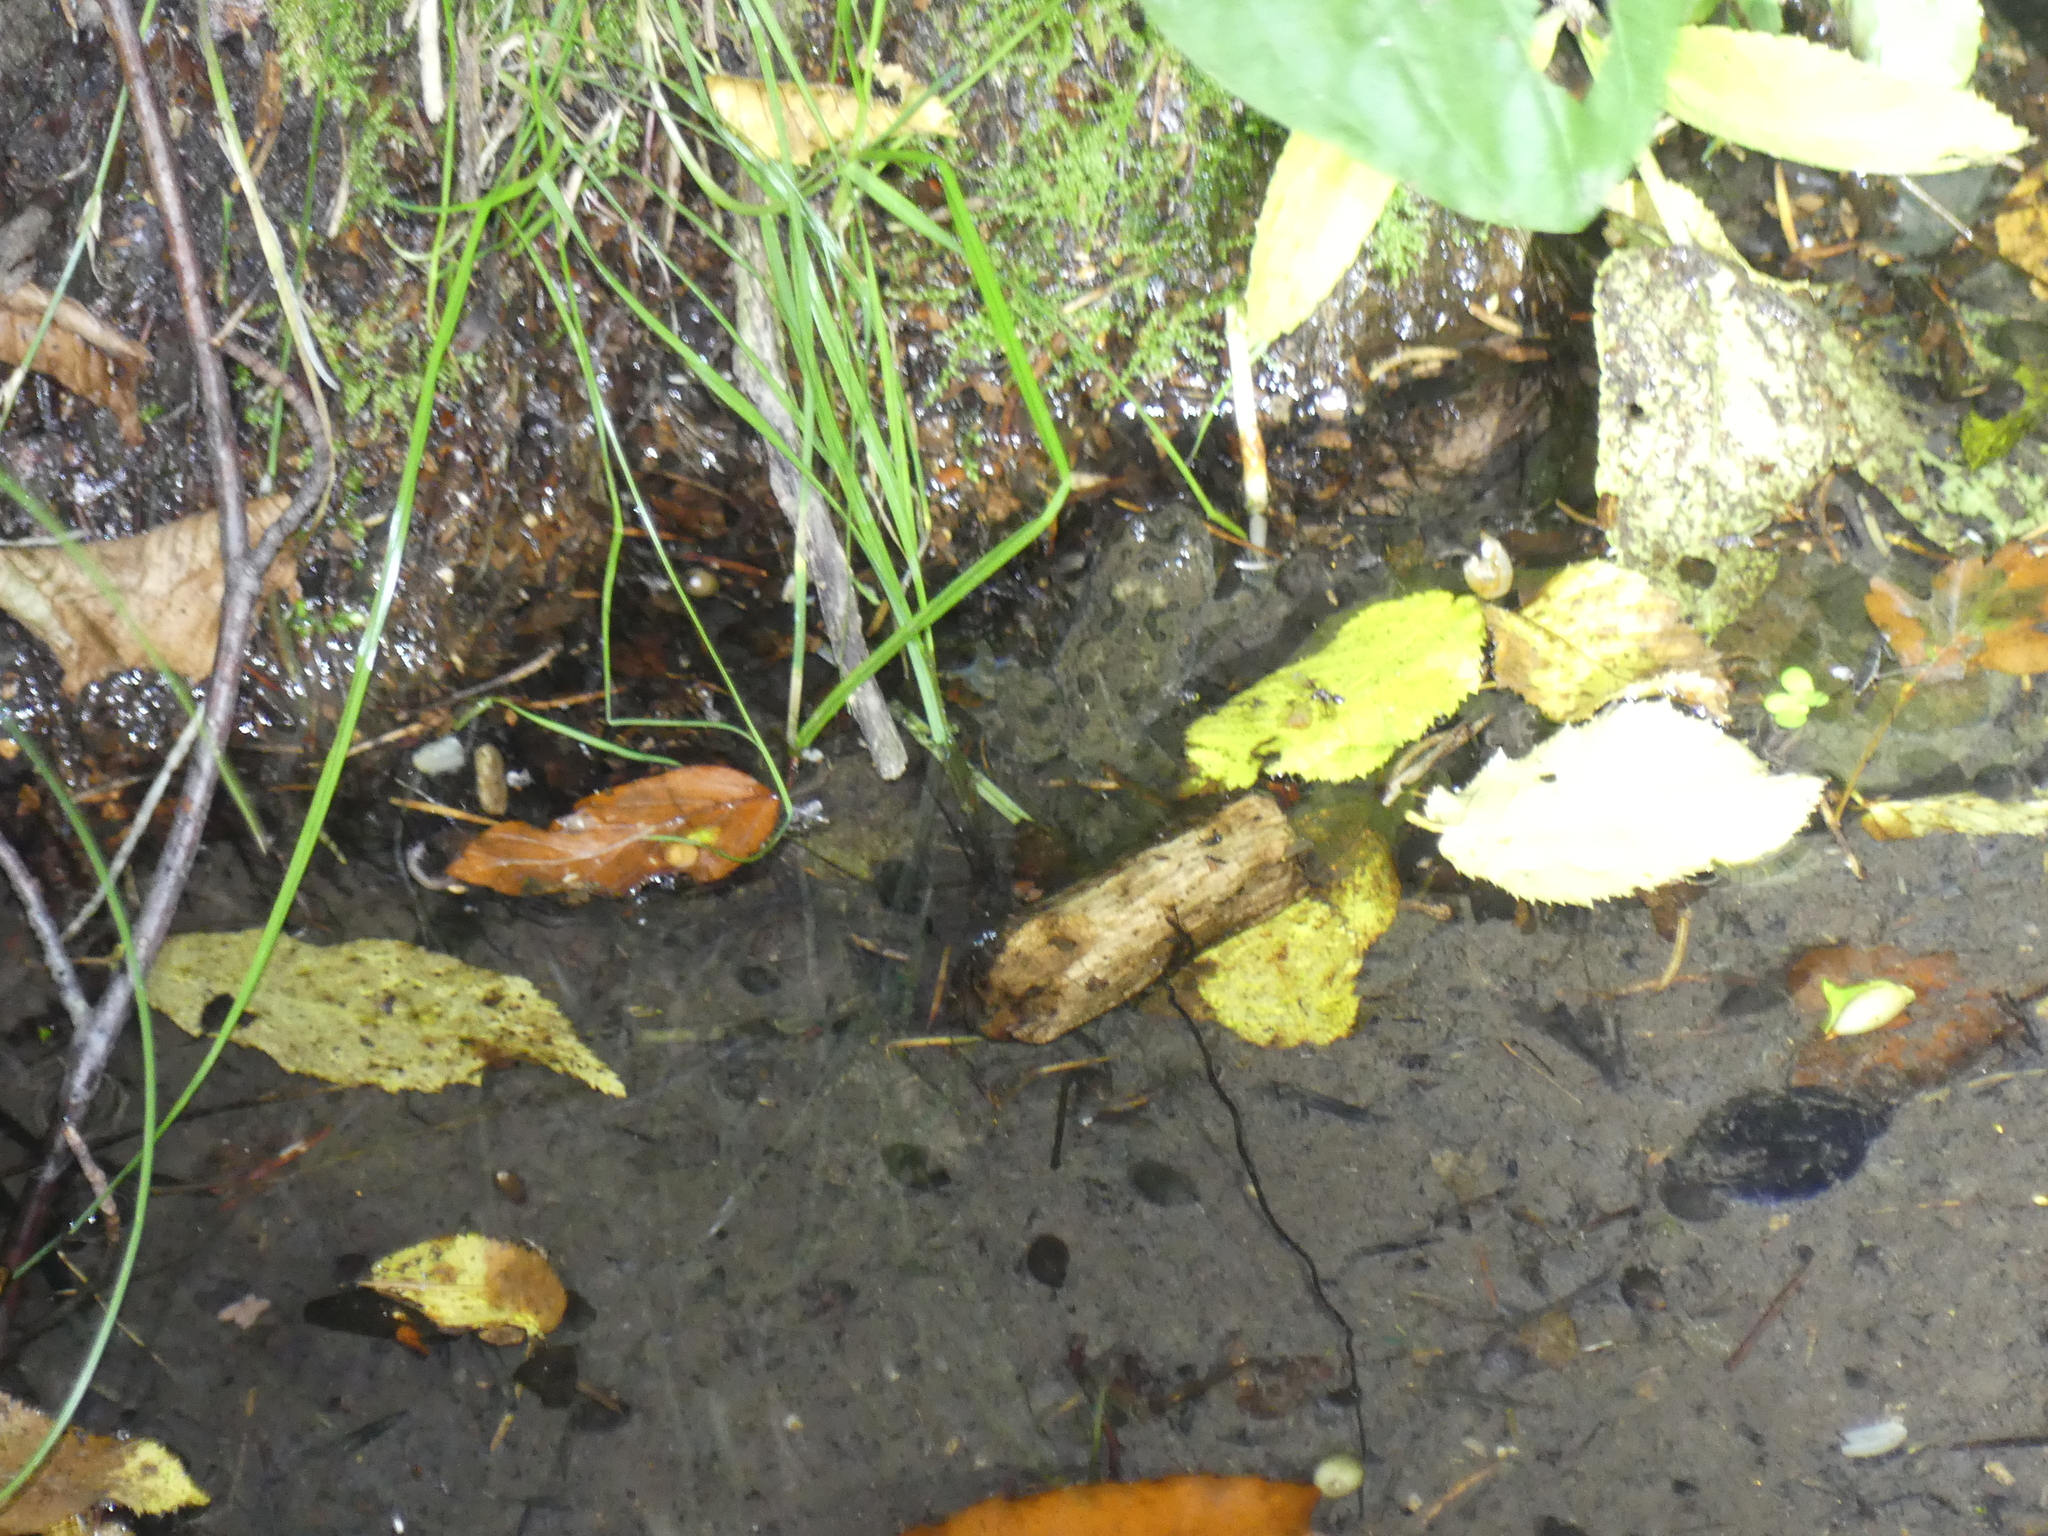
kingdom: Animalia
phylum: Chordata
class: Amphibia
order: Anura
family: Bombinatoridae
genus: Bombina
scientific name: Bombina variegata
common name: Yellow-bellied toad
